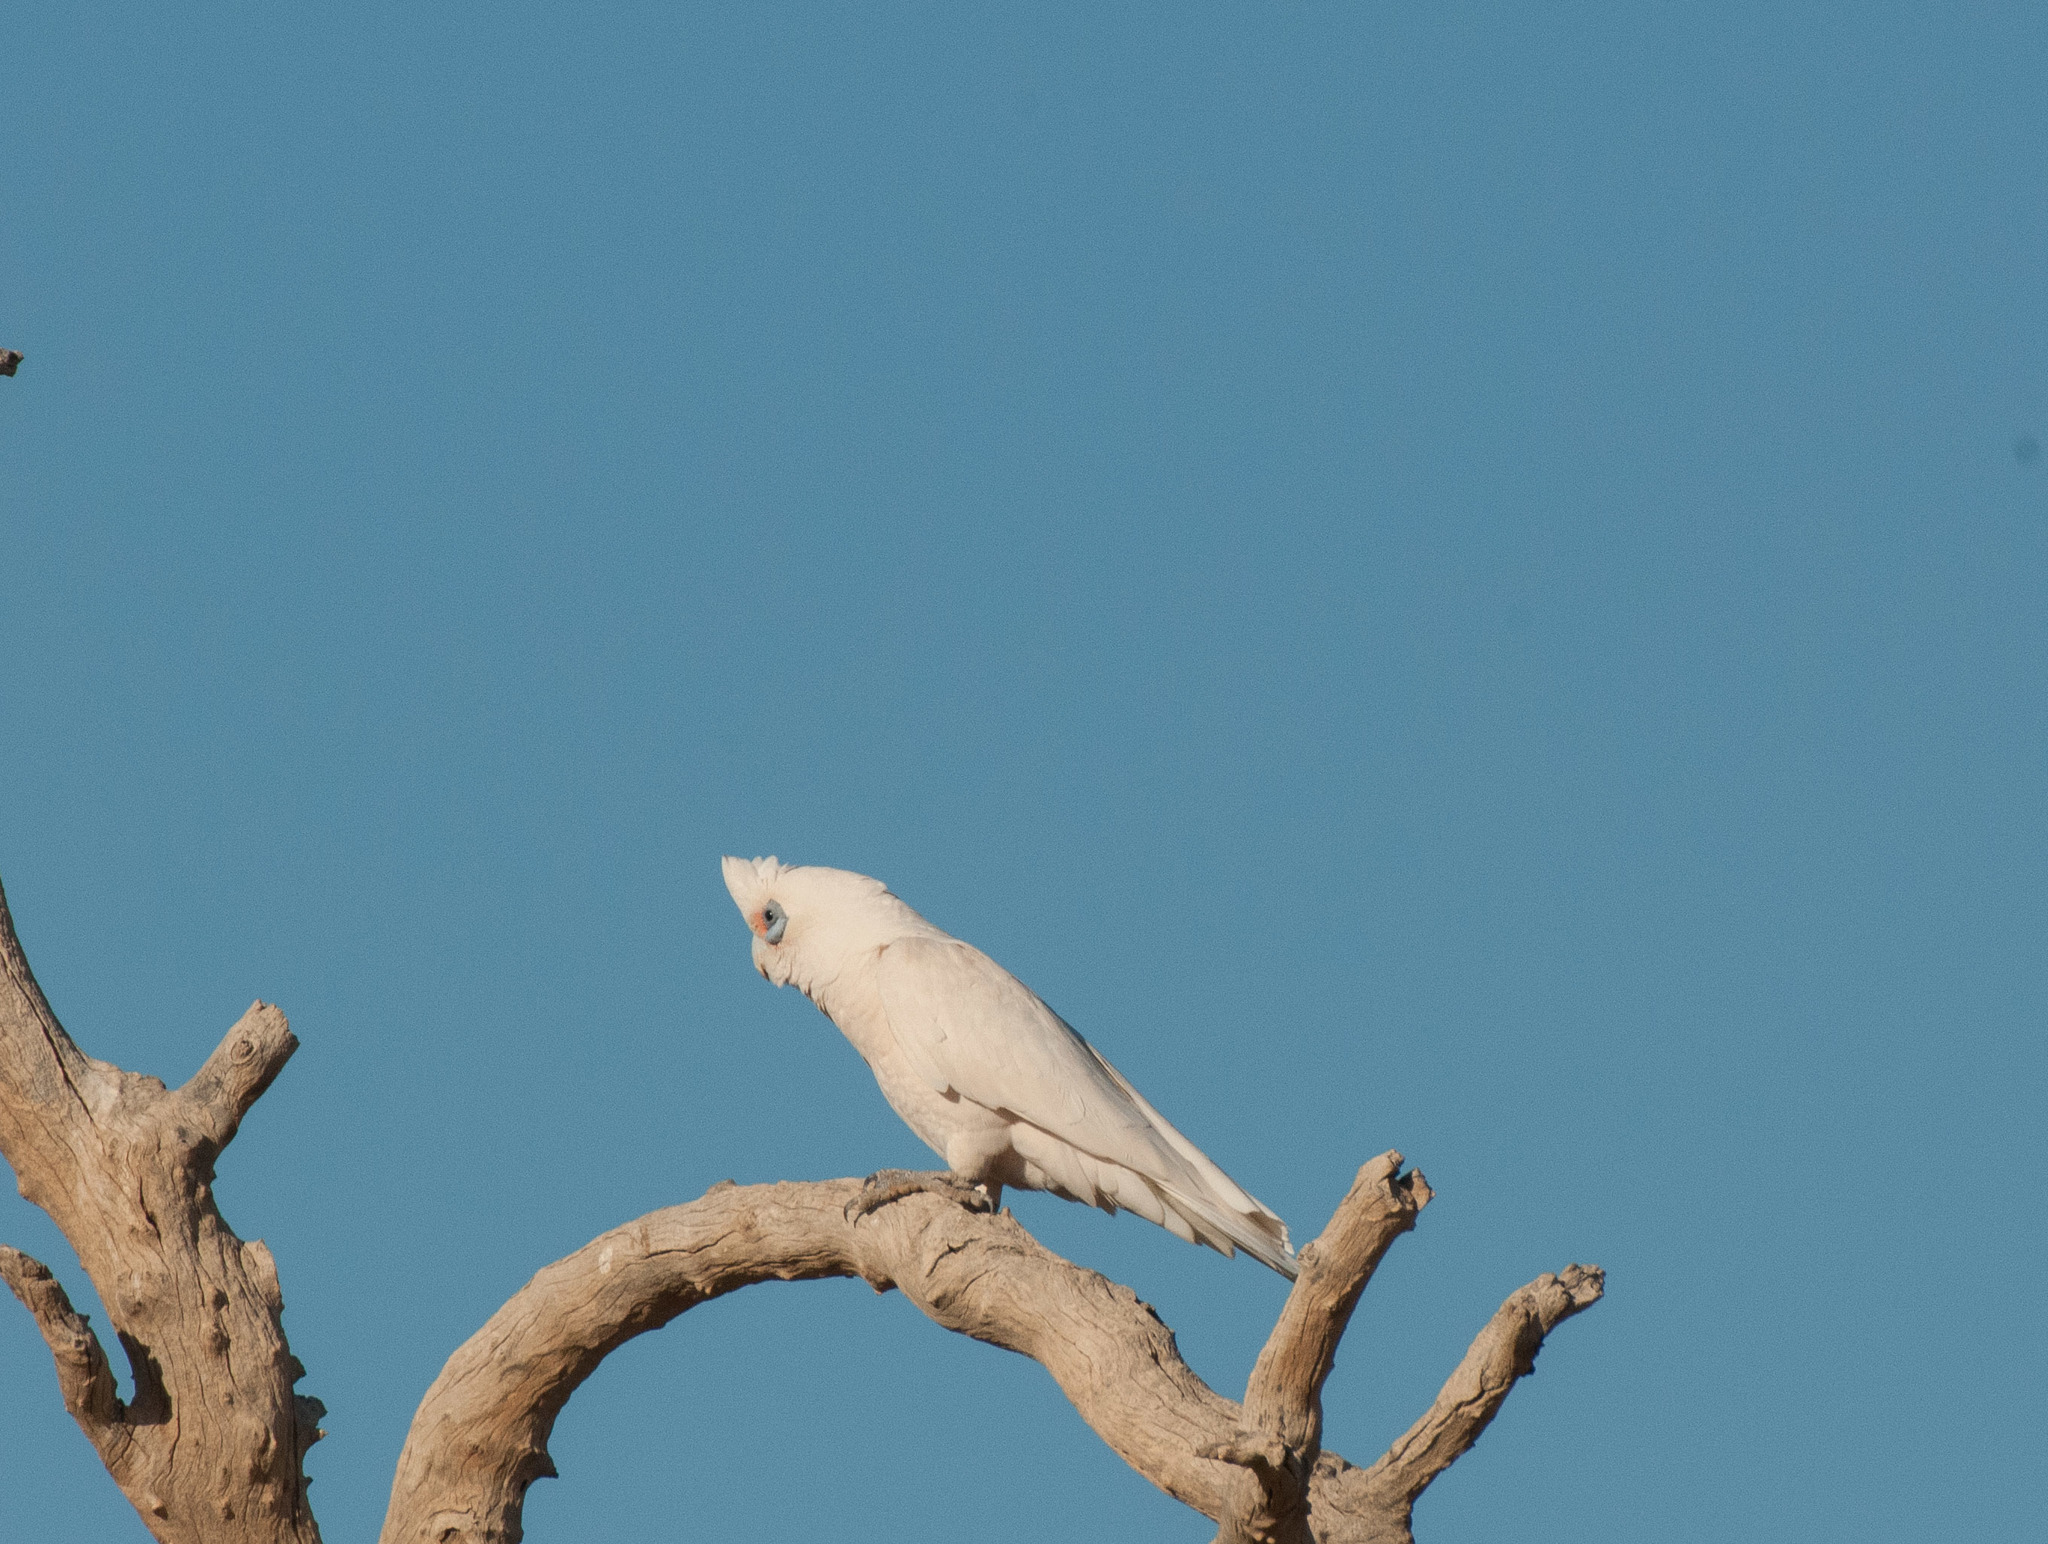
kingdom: Animalia
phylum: Chordata
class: Aves
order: Psittaciformes
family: Psittacidae
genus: Cacatua
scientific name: Cacatua sanguinea
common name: Little corella
